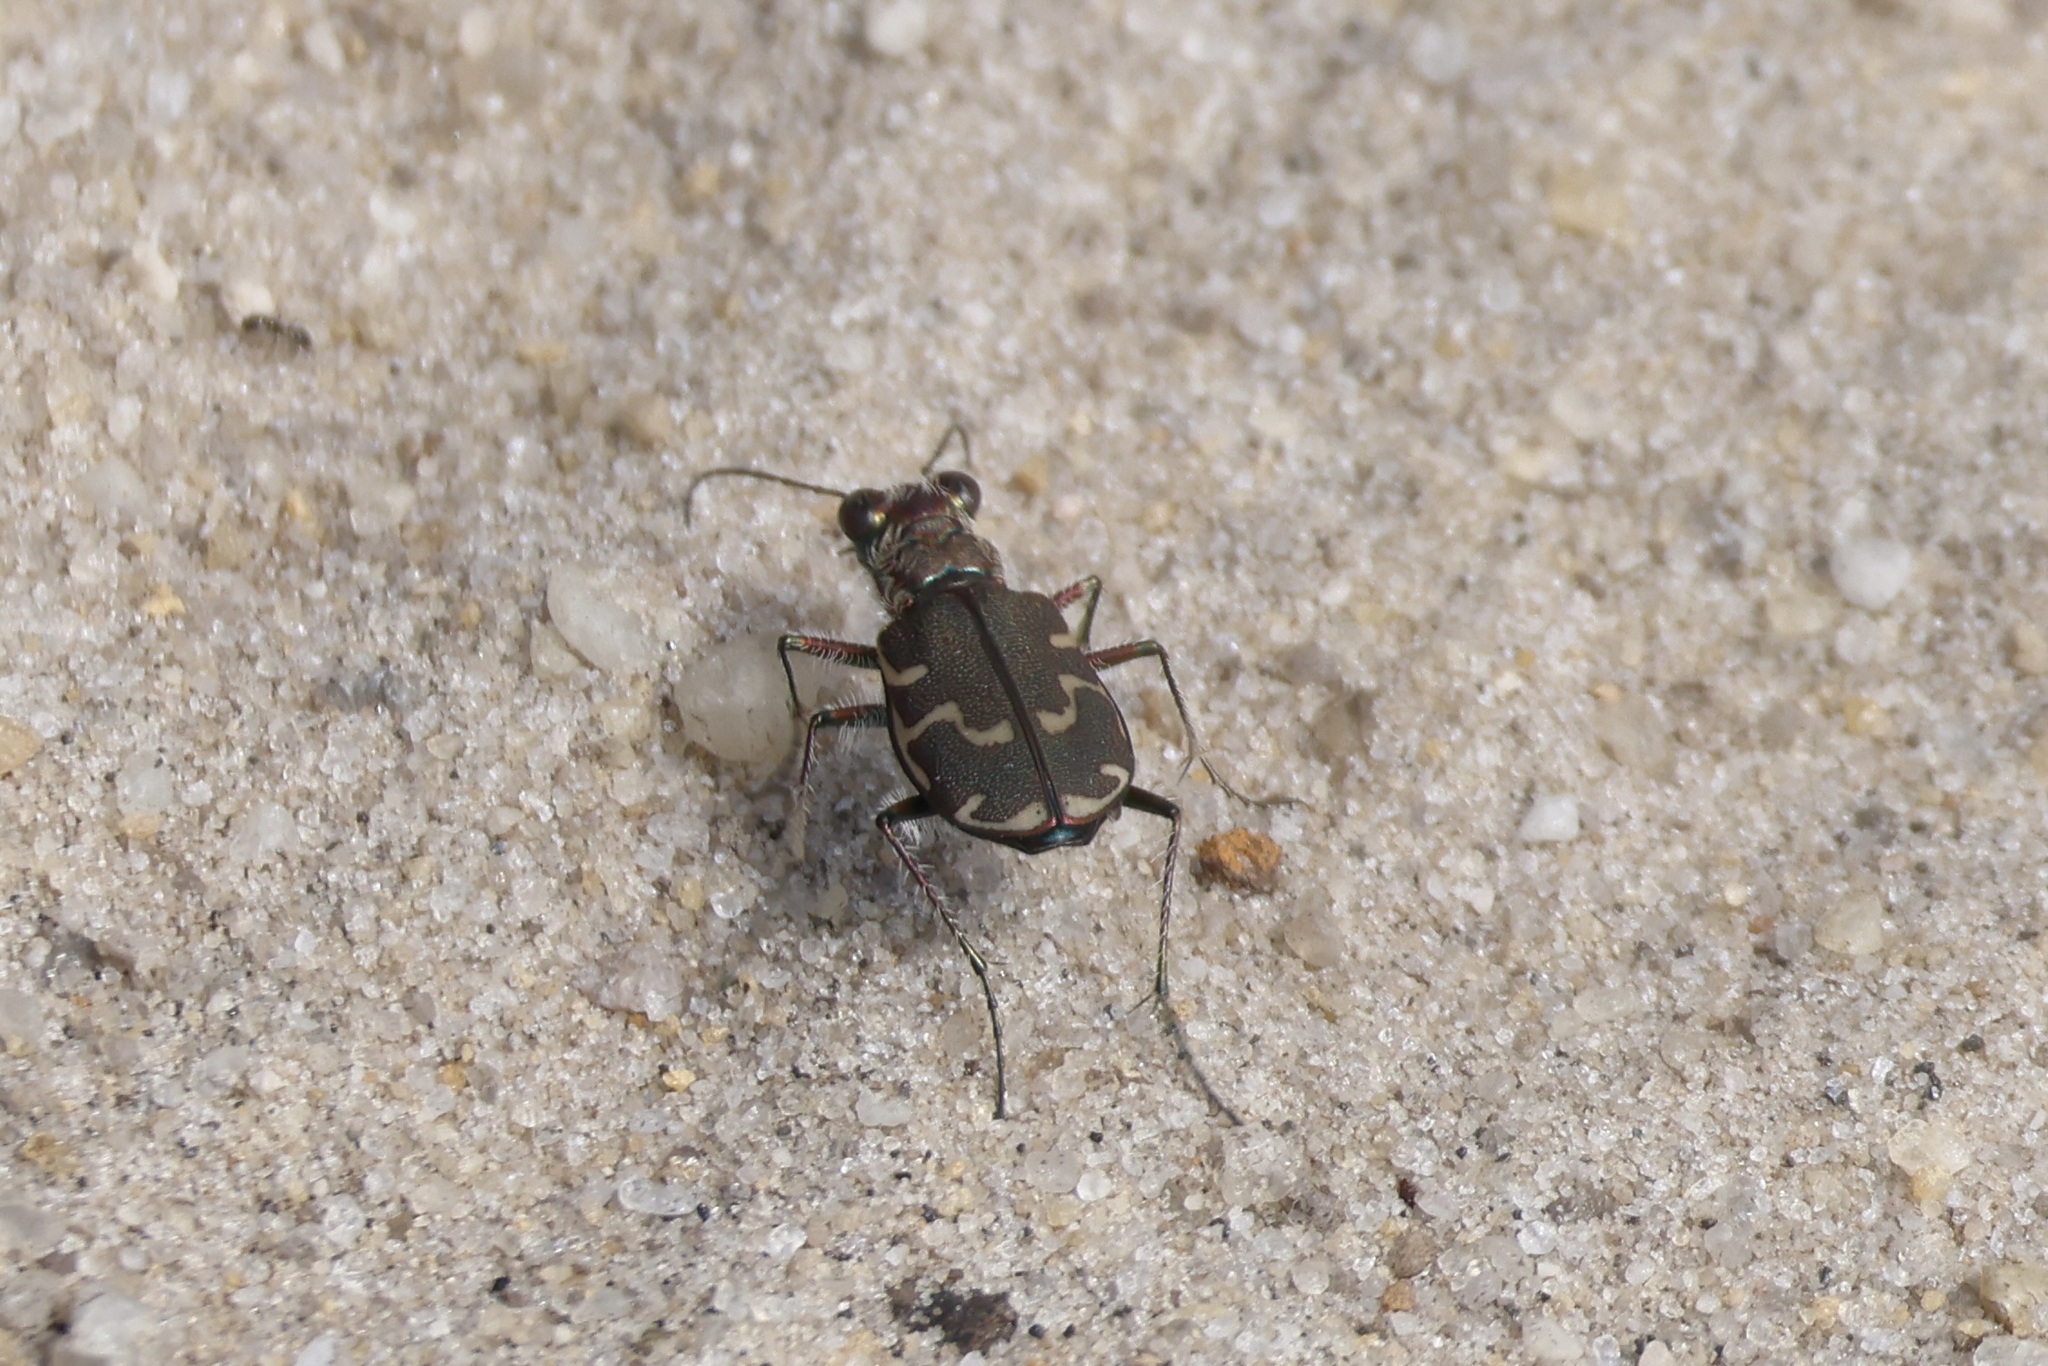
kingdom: Animalia
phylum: Arthropoda
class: Insecta
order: Coleoptera
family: Carabidae
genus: Cicindela
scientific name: Cicindela repanda
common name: Bronzed tiger beetle
